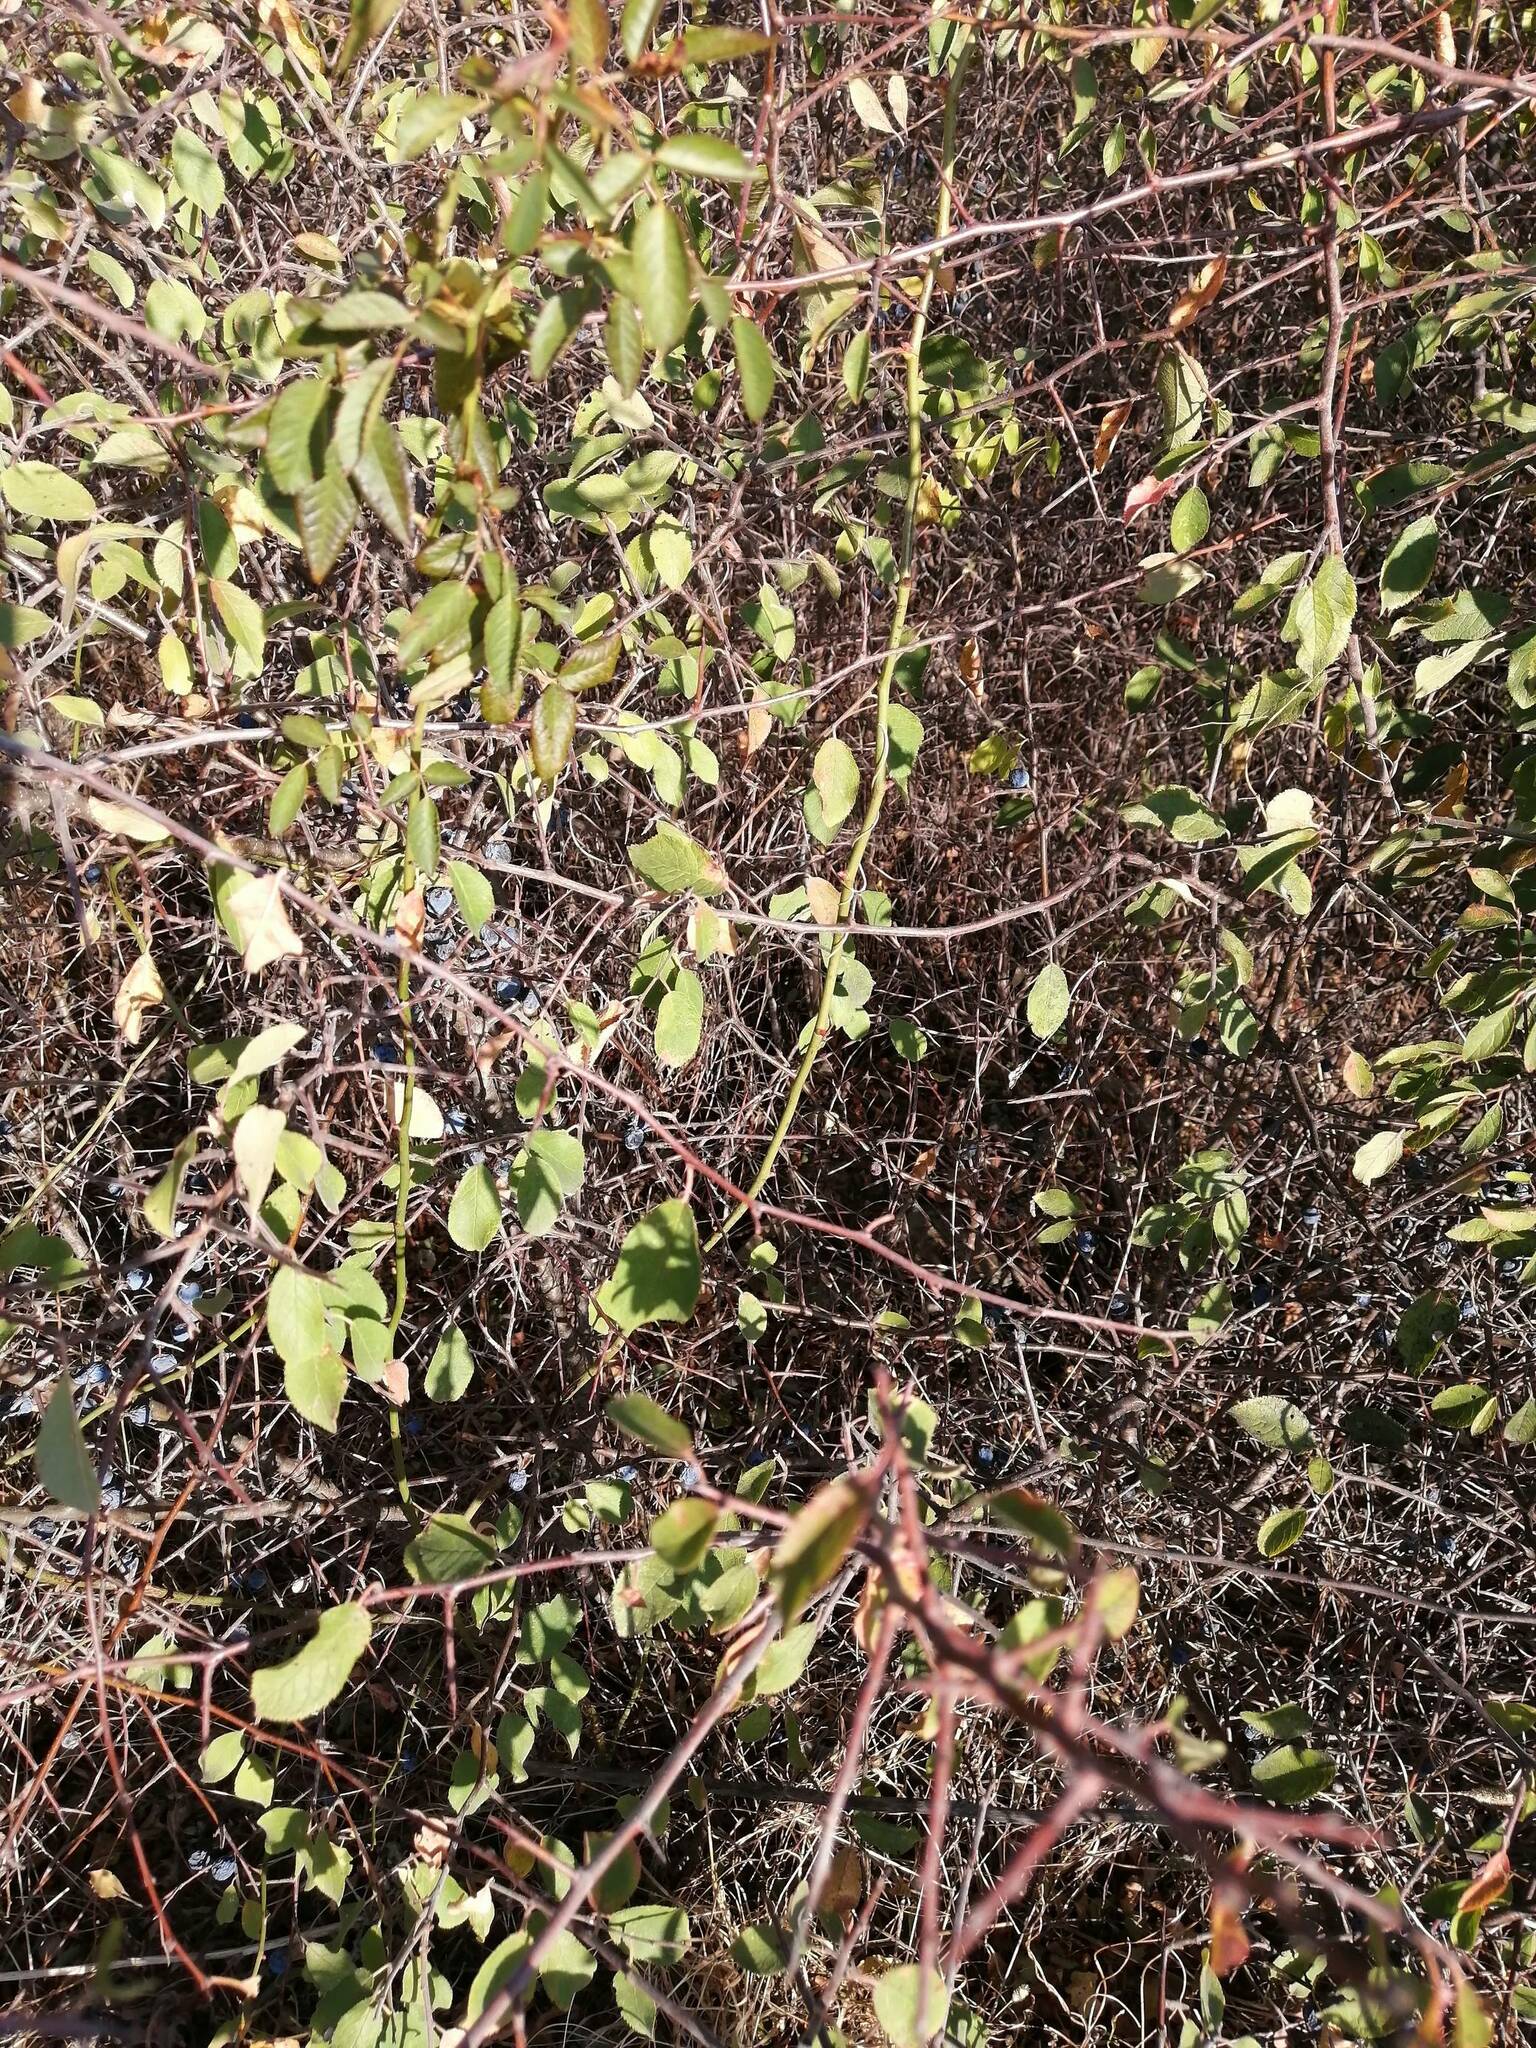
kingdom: Plantae
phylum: Tracheophyta
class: Magnoliopsida
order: Rosales
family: Rosaceae
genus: Prunus
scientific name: Prunus spinosa
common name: Blackthorn
